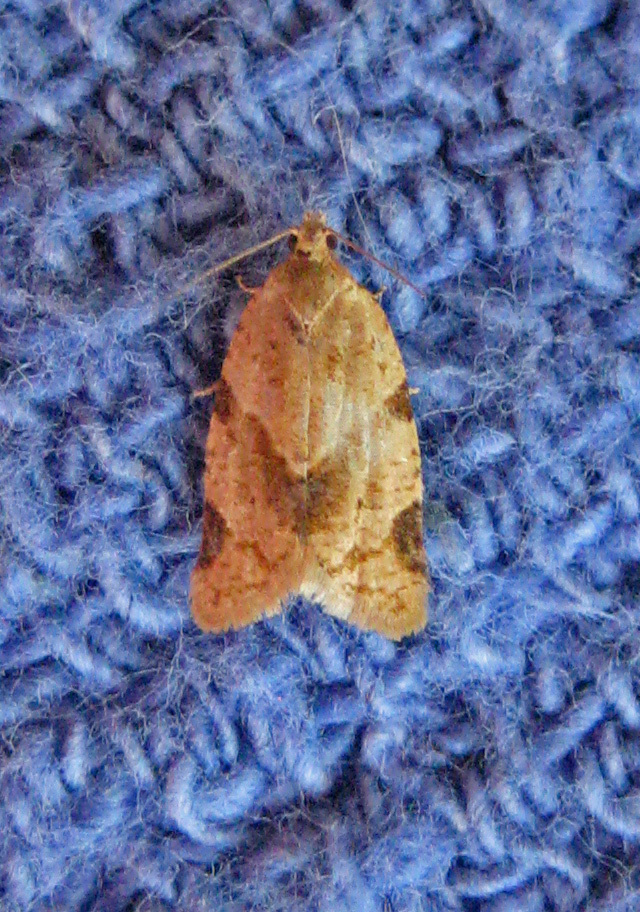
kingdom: Animalia
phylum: Arthropoda
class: Insecta
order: Lepidoptera
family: Tortricidae
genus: Clepsis
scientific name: Clepsis peritana
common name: Garden tortrix
